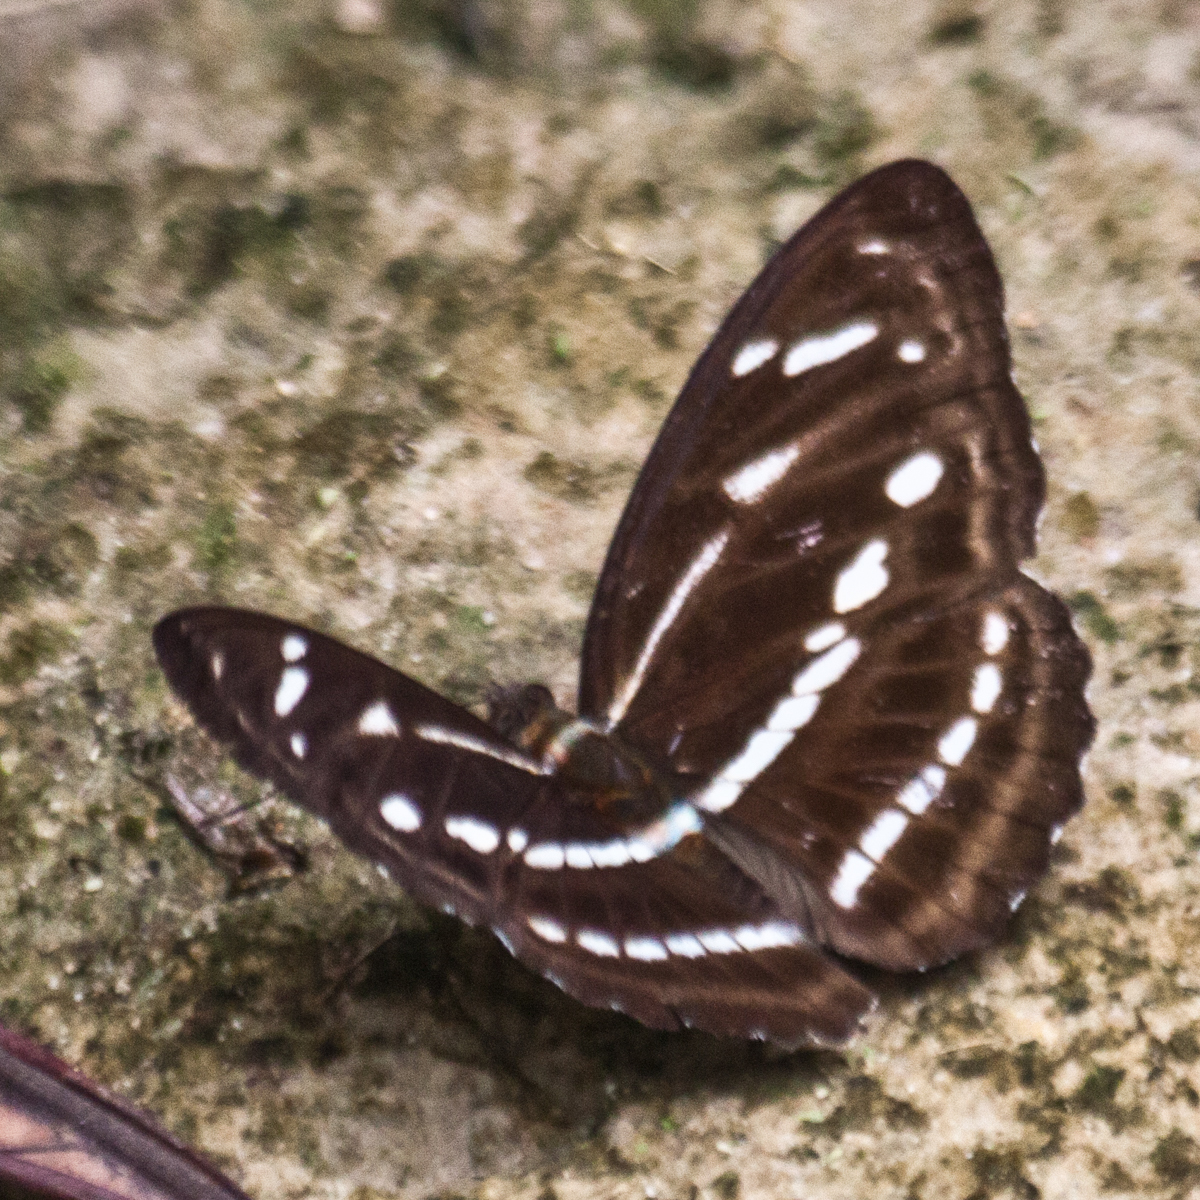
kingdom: Animalia
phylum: Arthropoda
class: Insecta
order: Lepidoptera
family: Nymphalidae
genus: Parathyma
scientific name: Parathyma kanwa
